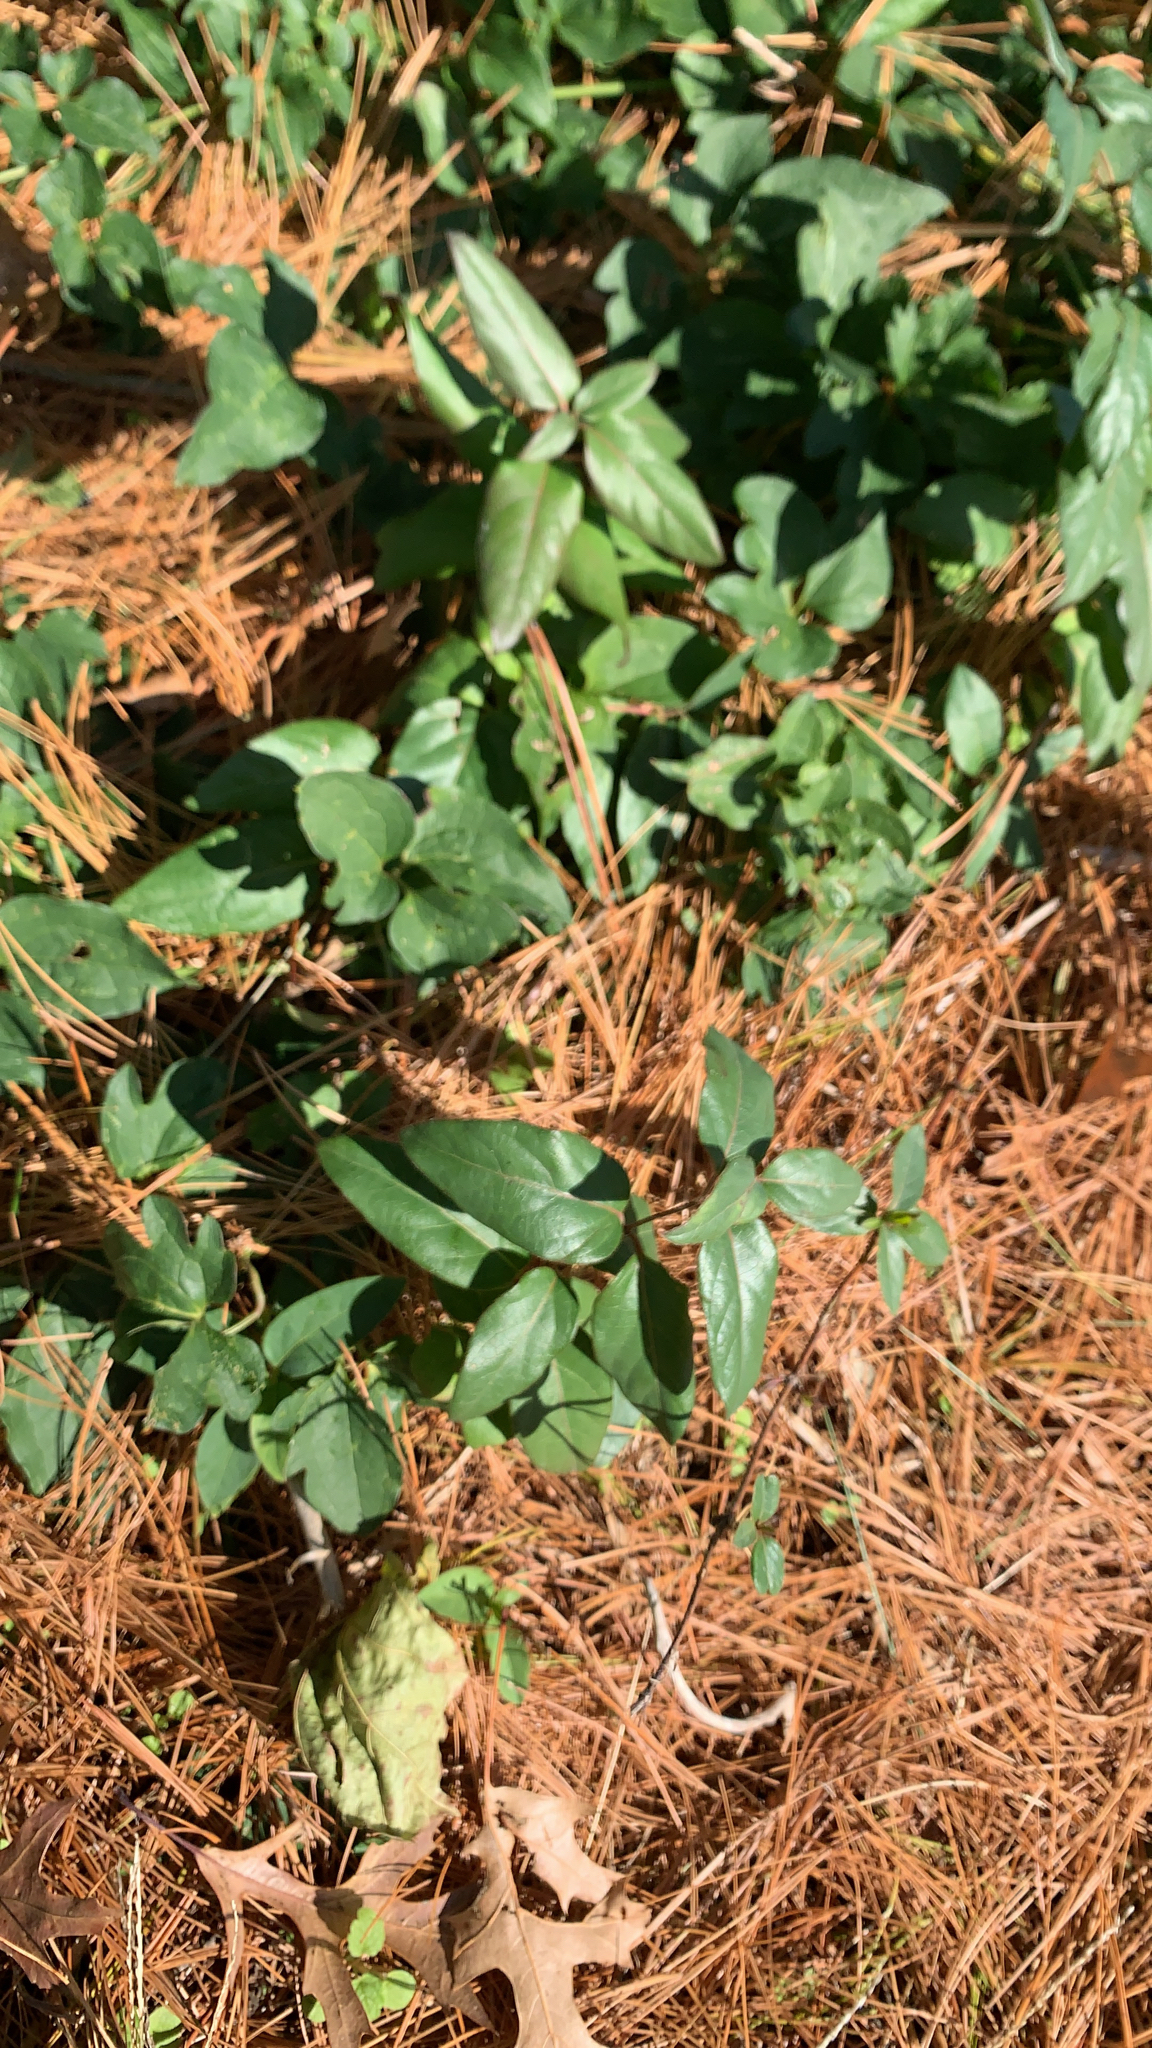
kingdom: Plantae
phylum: Tracheophyta
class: Magnoliopsida
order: Dipsacales
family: Caprifoliaceae
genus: Lonicera
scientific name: Lonicera japonica
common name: Japanese honeysuckle
